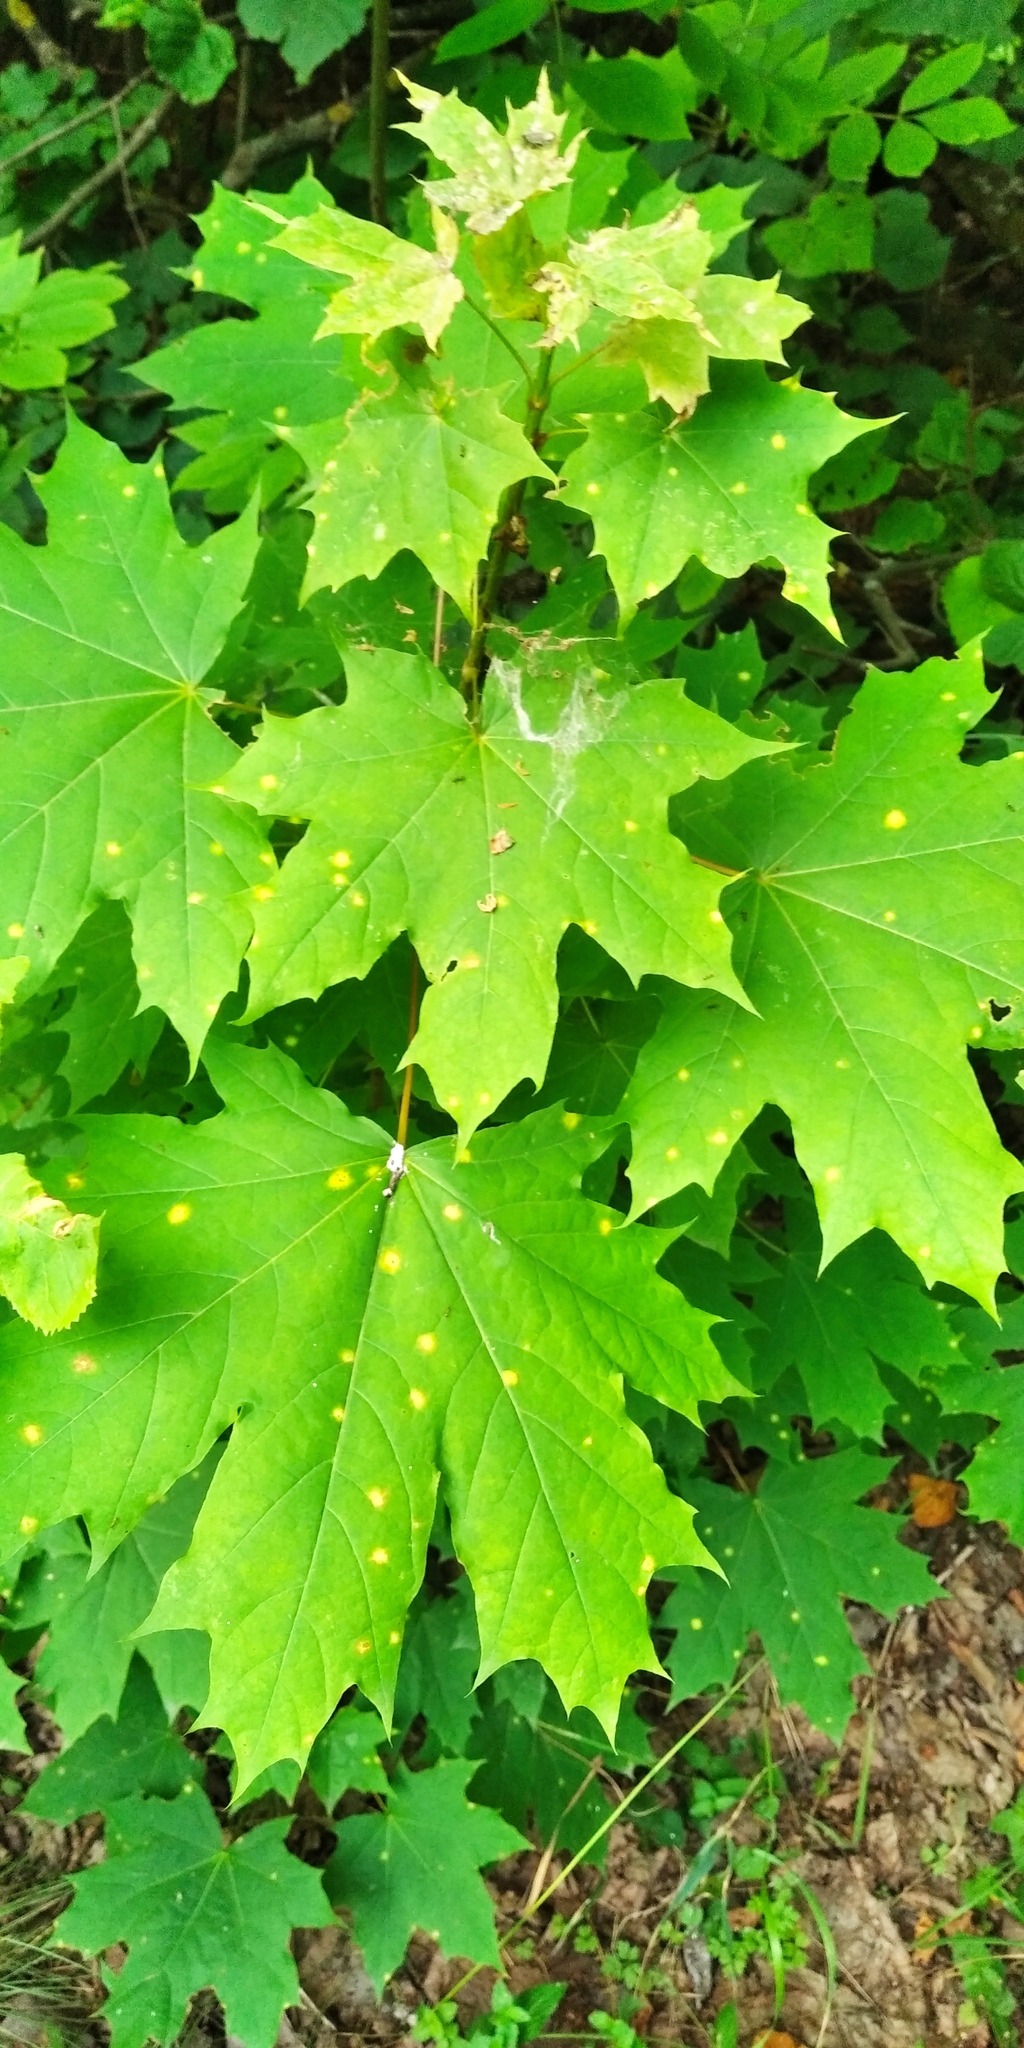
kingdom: Plantae
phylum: Tracheophyta
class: Magnoliopsida
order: Sapindales
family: Sapindaceae
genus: Acer
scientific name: Acer platanoides
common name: Norway maple
